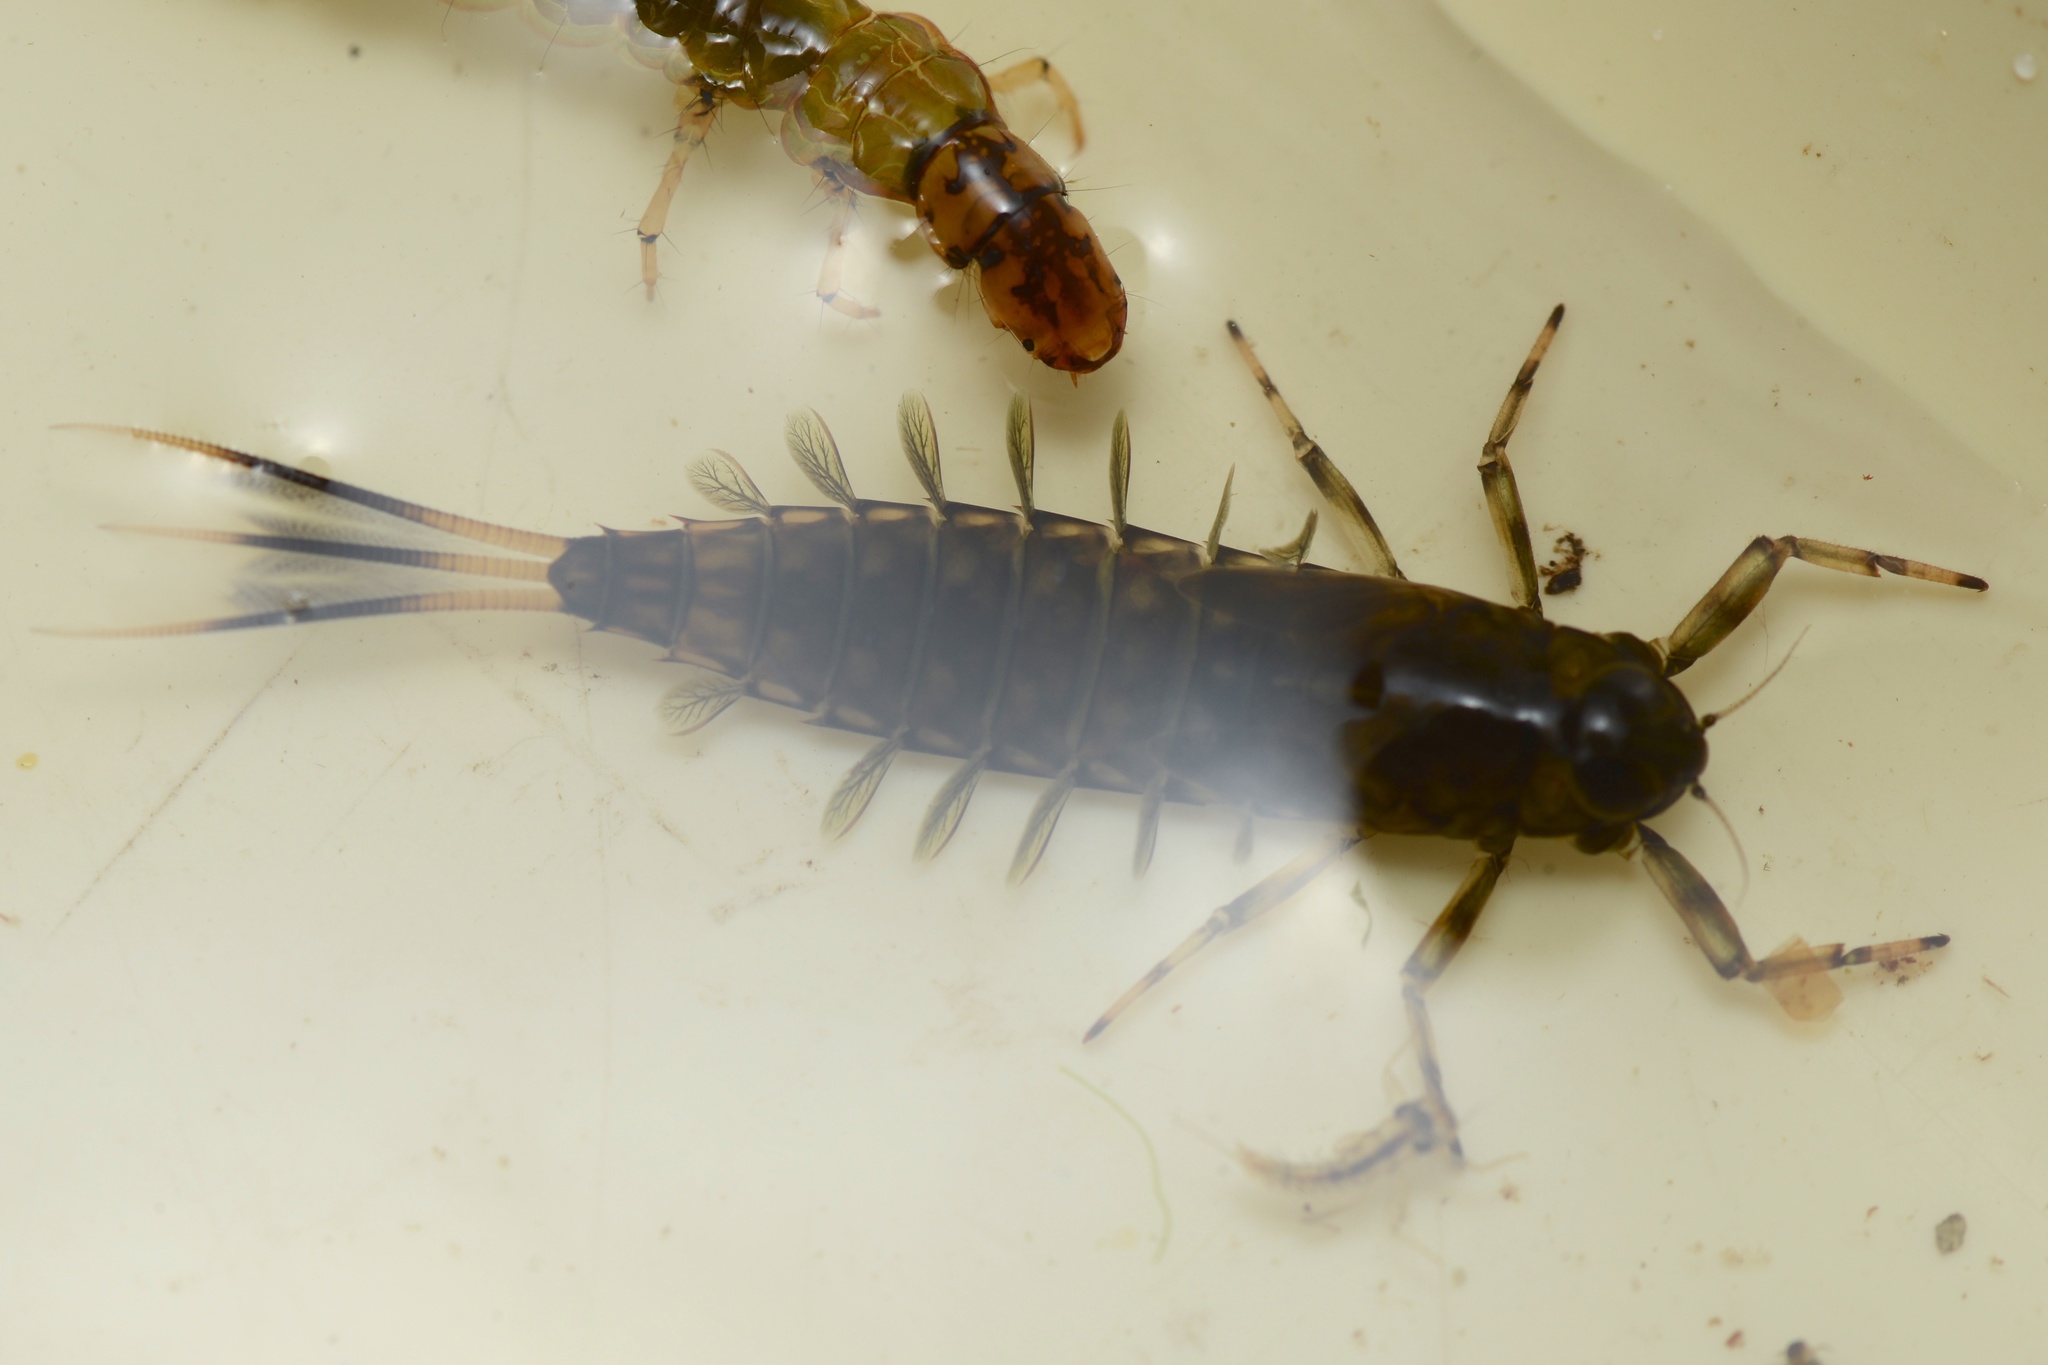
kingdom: Animalia
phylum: Arthropoda
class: Insecta
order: Ephemeroptera
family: Nesameletidae
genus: Nesameletus
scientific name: Nesameletus ornatus
